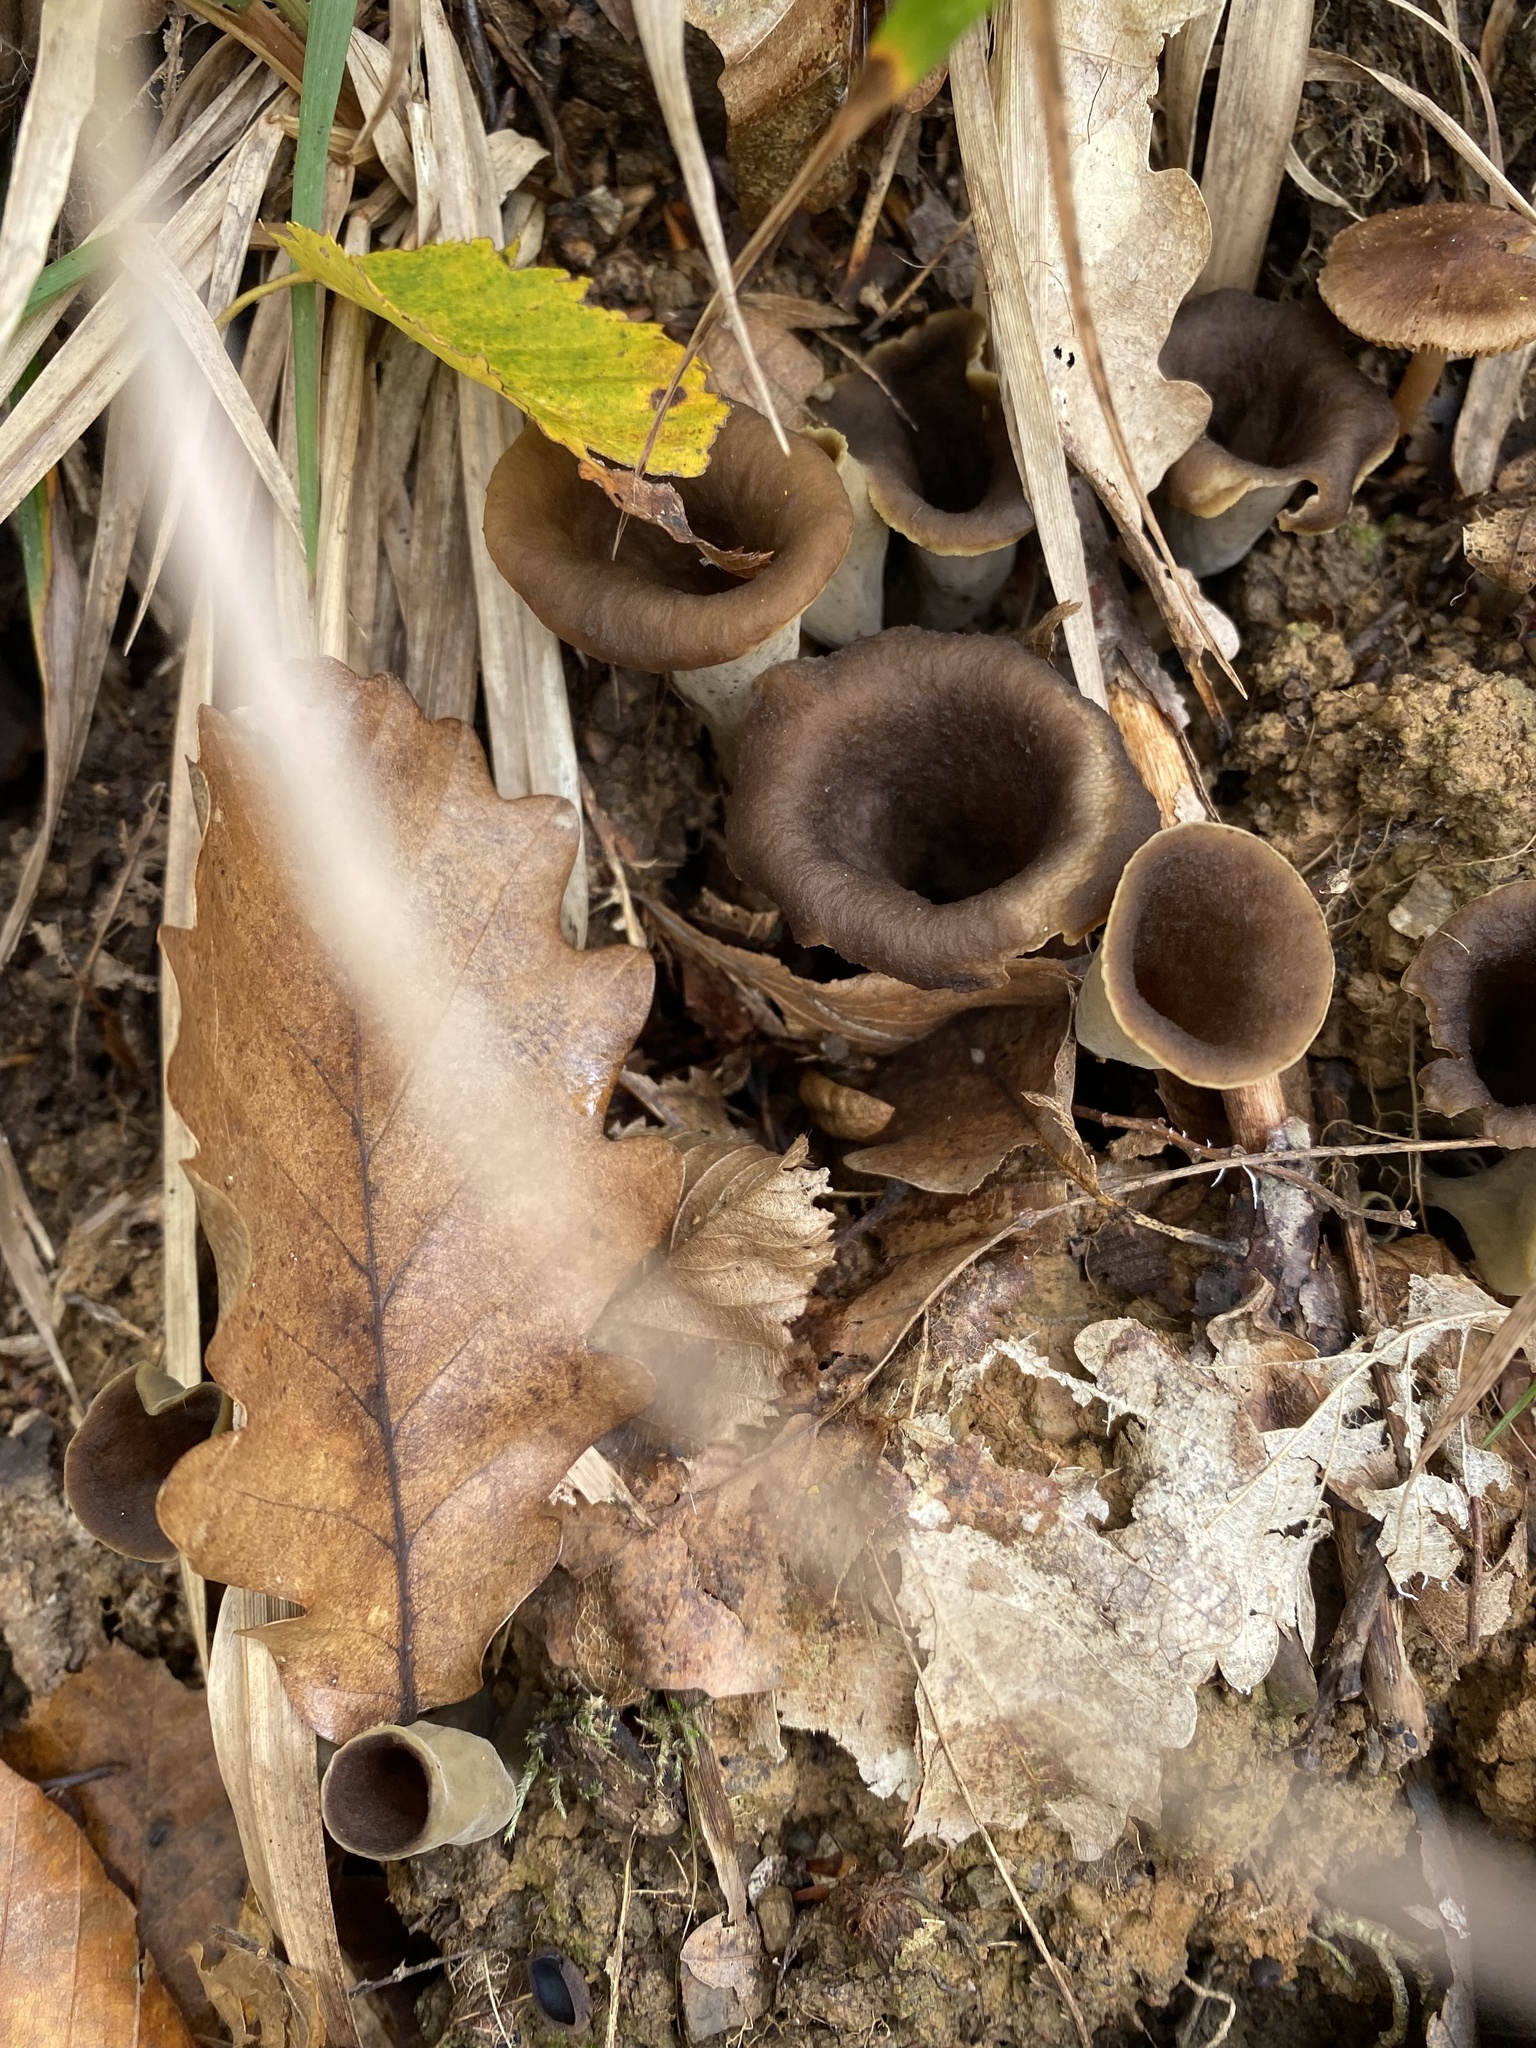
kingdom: Fungi
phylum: Basidiomycota
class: Agaricomycetes
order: Cantharellales
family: Hydnaceae
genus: Craterellus
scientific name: Craterellus cornucopioides
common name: Horn of plenty
